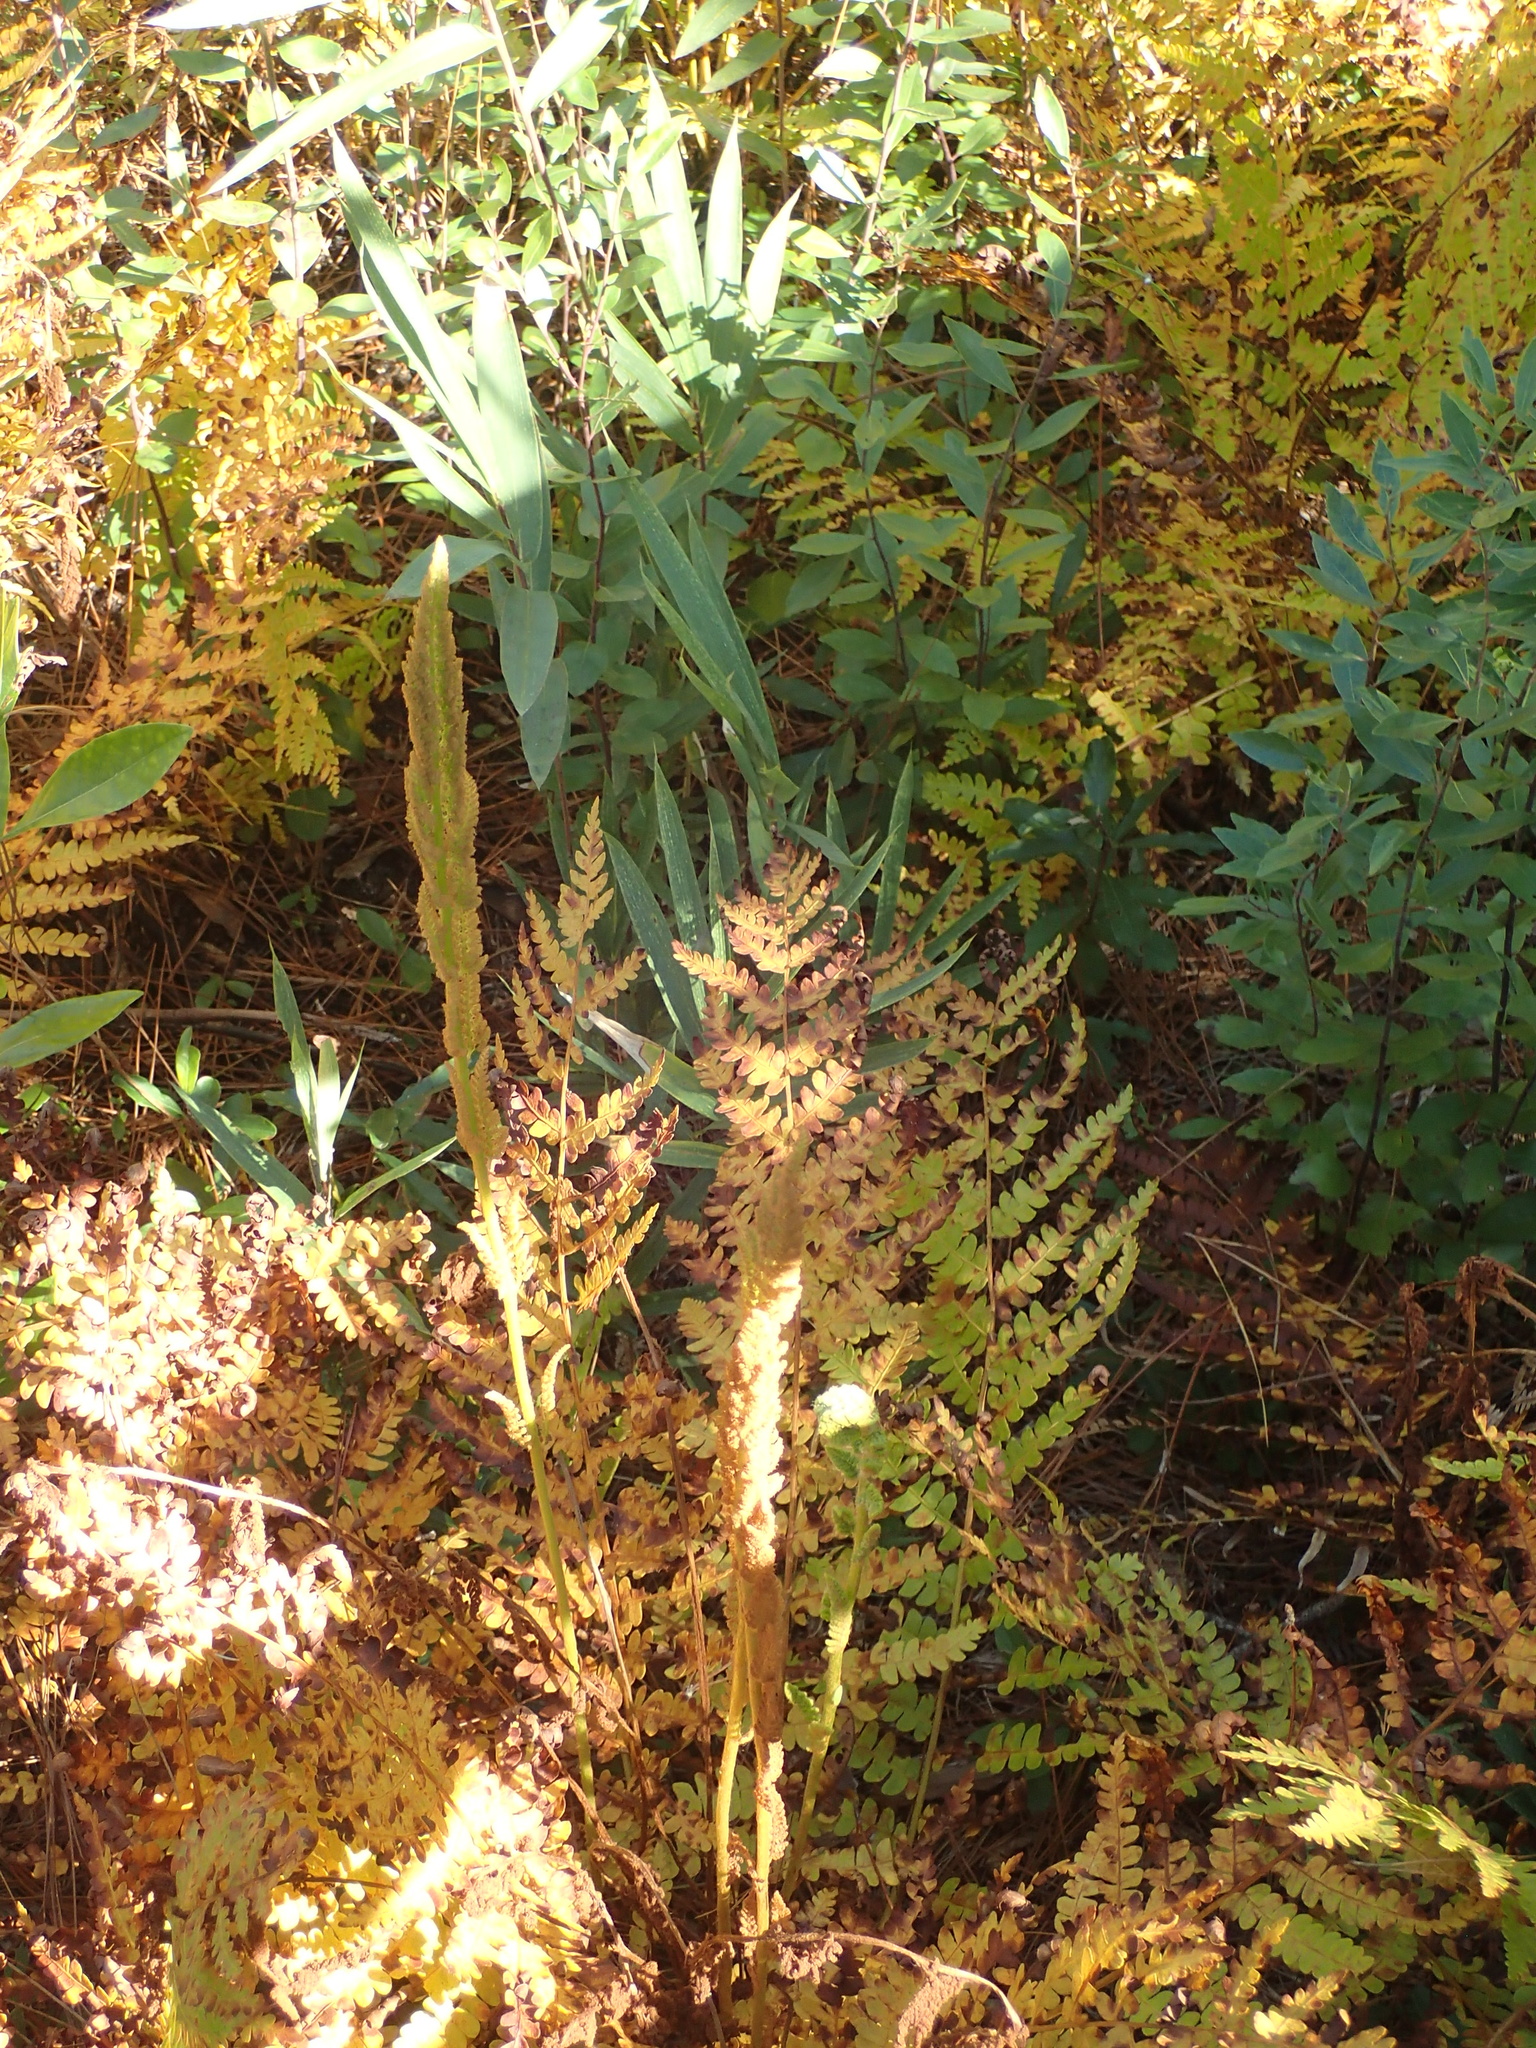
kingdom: Plantae
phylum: Tracheophyta
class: Polypodiopsida
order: Osmundales
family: Osmundaceae
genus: Osmundastrum
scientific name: Osmundastrum cinnamomeum
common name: Cinnamon fern
